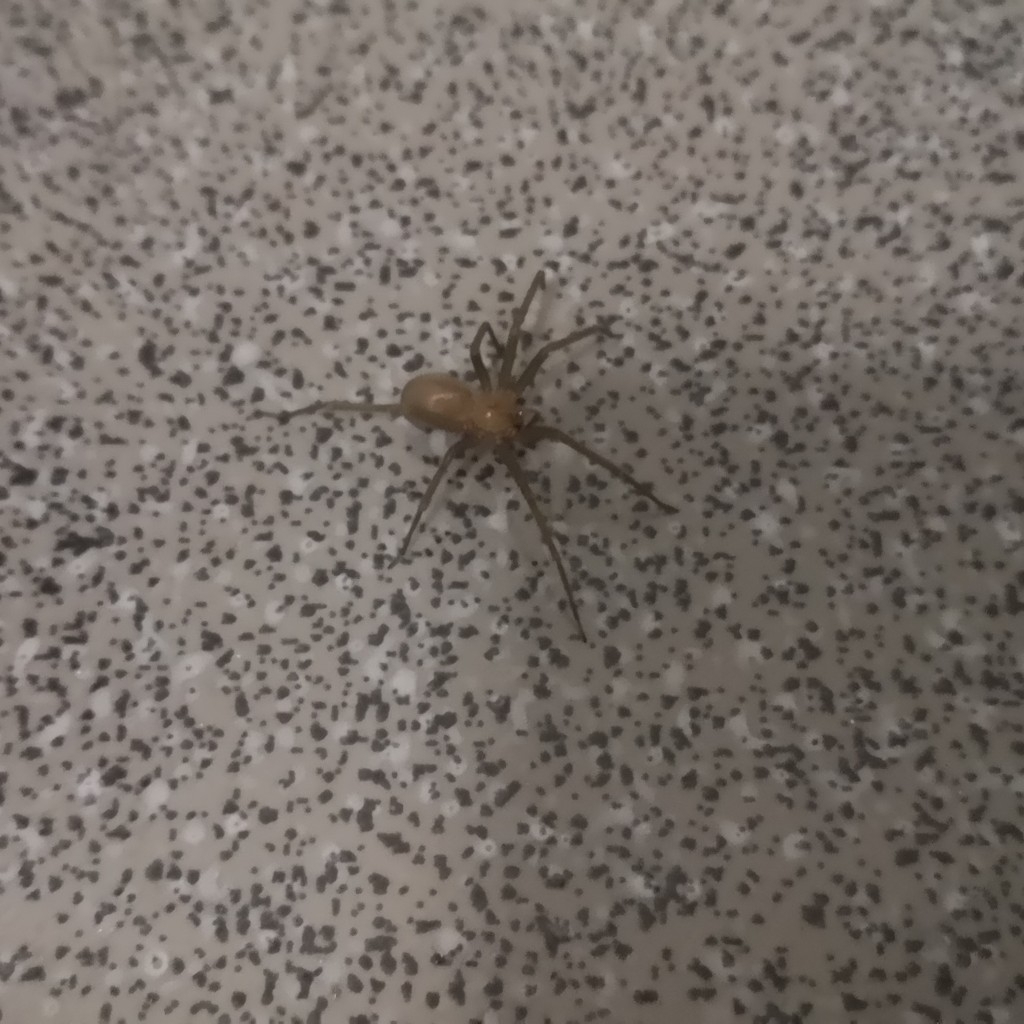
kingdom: Animalia
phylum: Arthropoda
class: Arachnida
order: Araneae
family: Sicariidae
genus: Loxosceles
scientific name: Loxosceles laeta
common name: Chilean recluse spider
